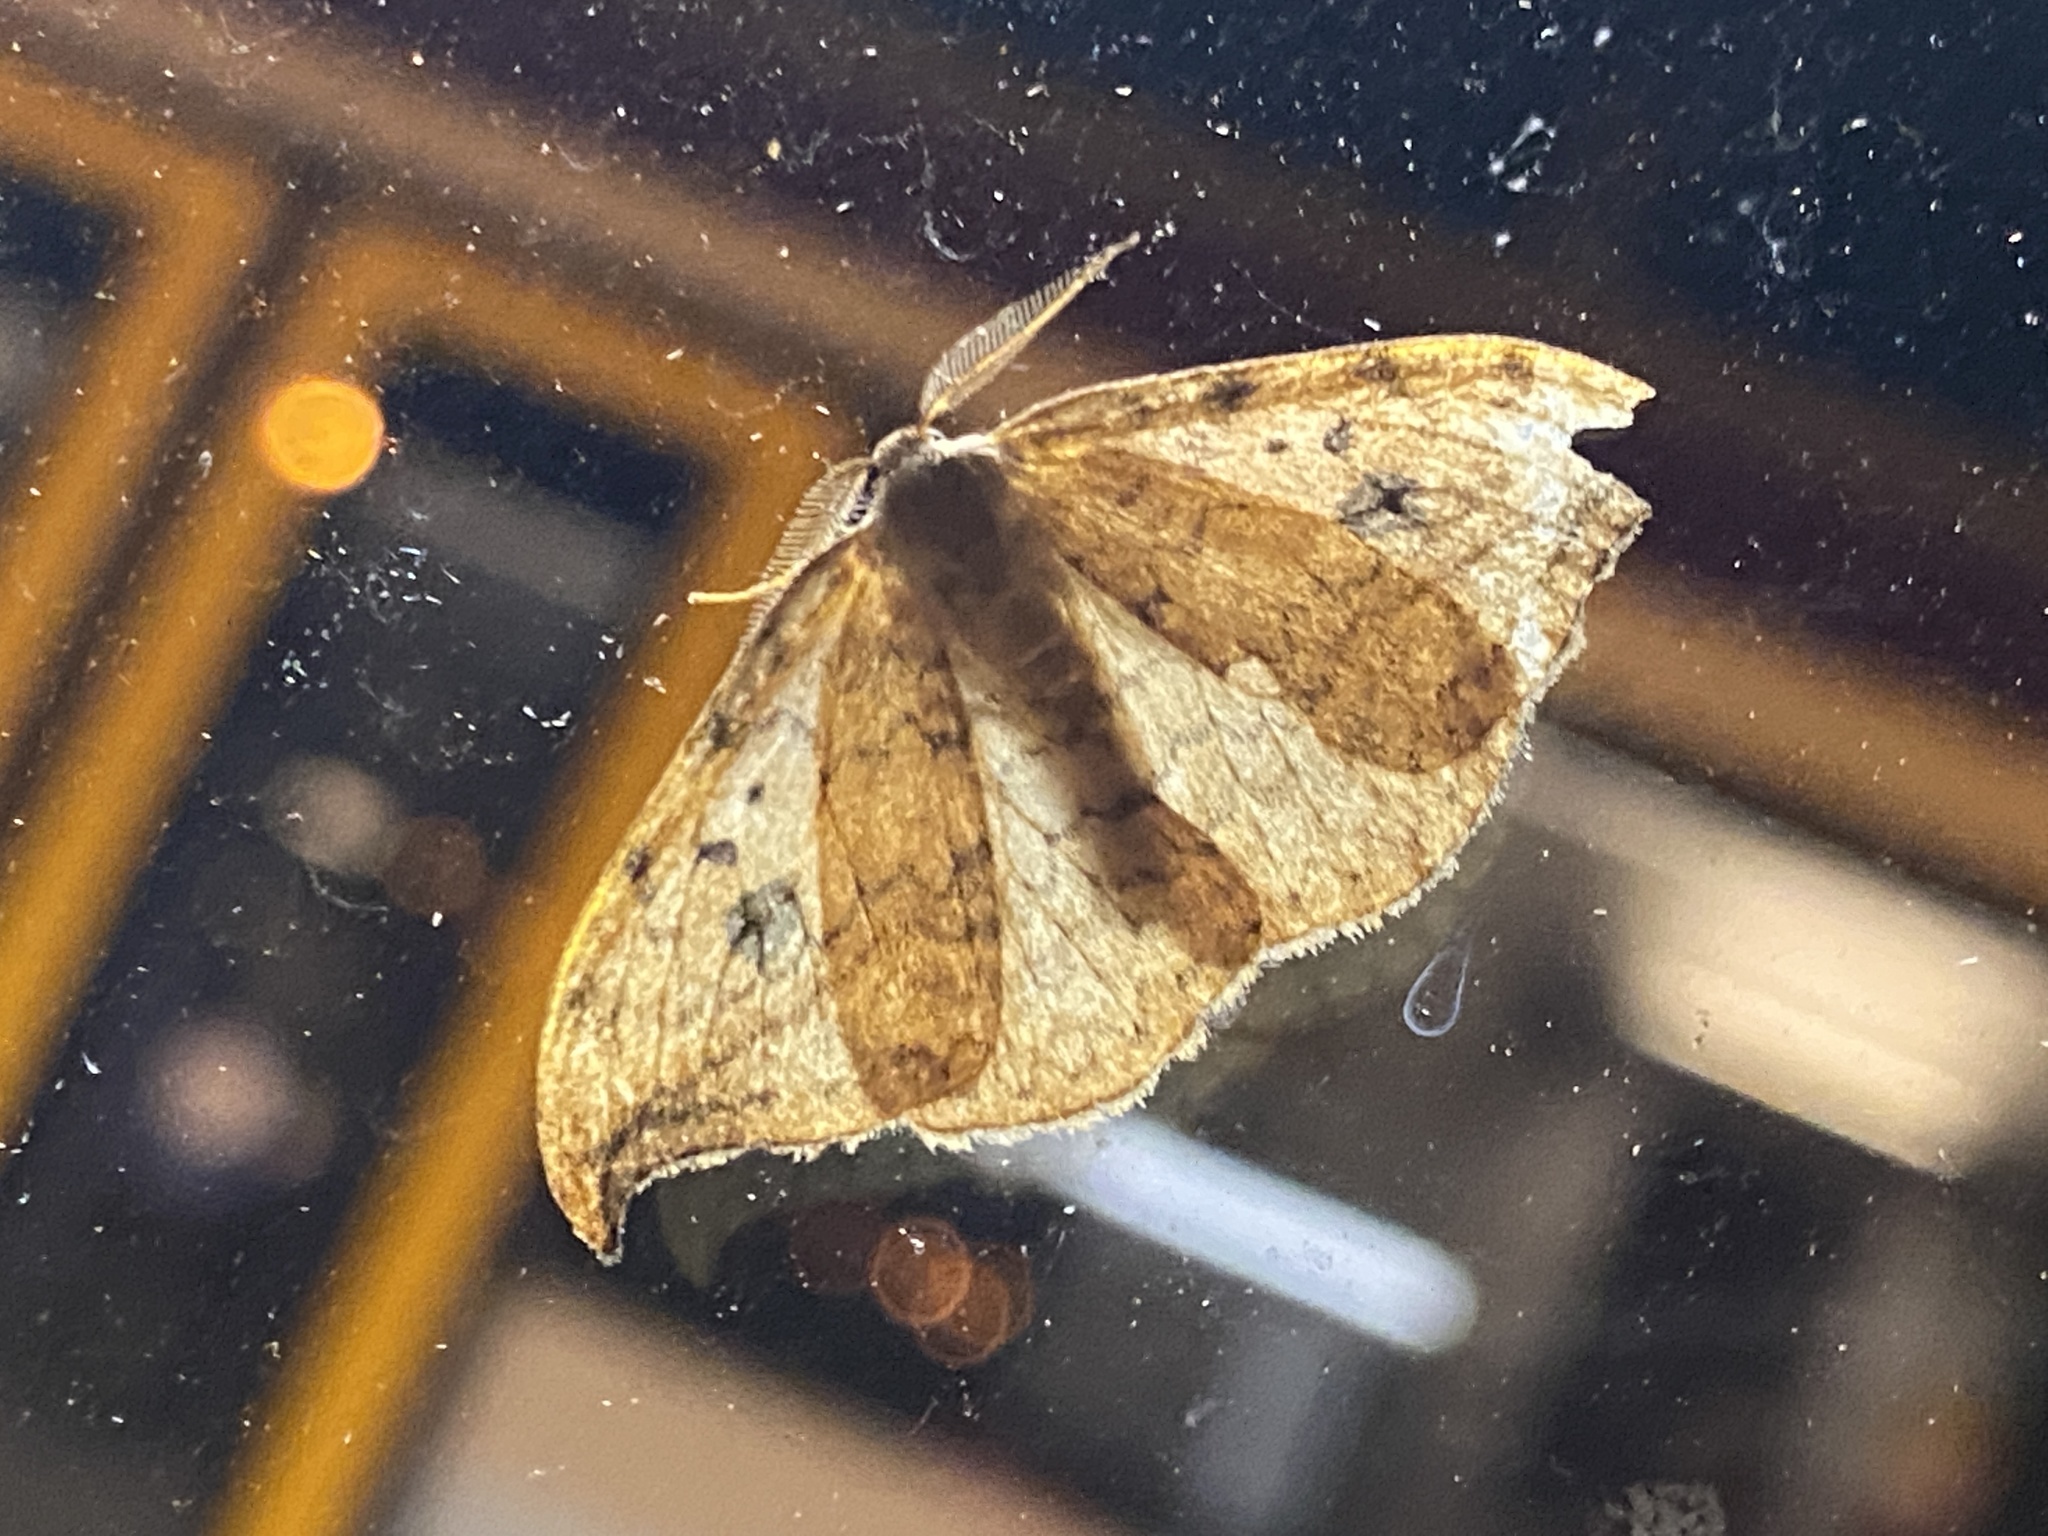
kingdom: Animalia
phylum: Arthropoda
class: Insecta
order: Lepidoptera
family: Drepanidae
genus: Drepana
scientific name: Drepana falcataria
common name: Pebble hook-tip
